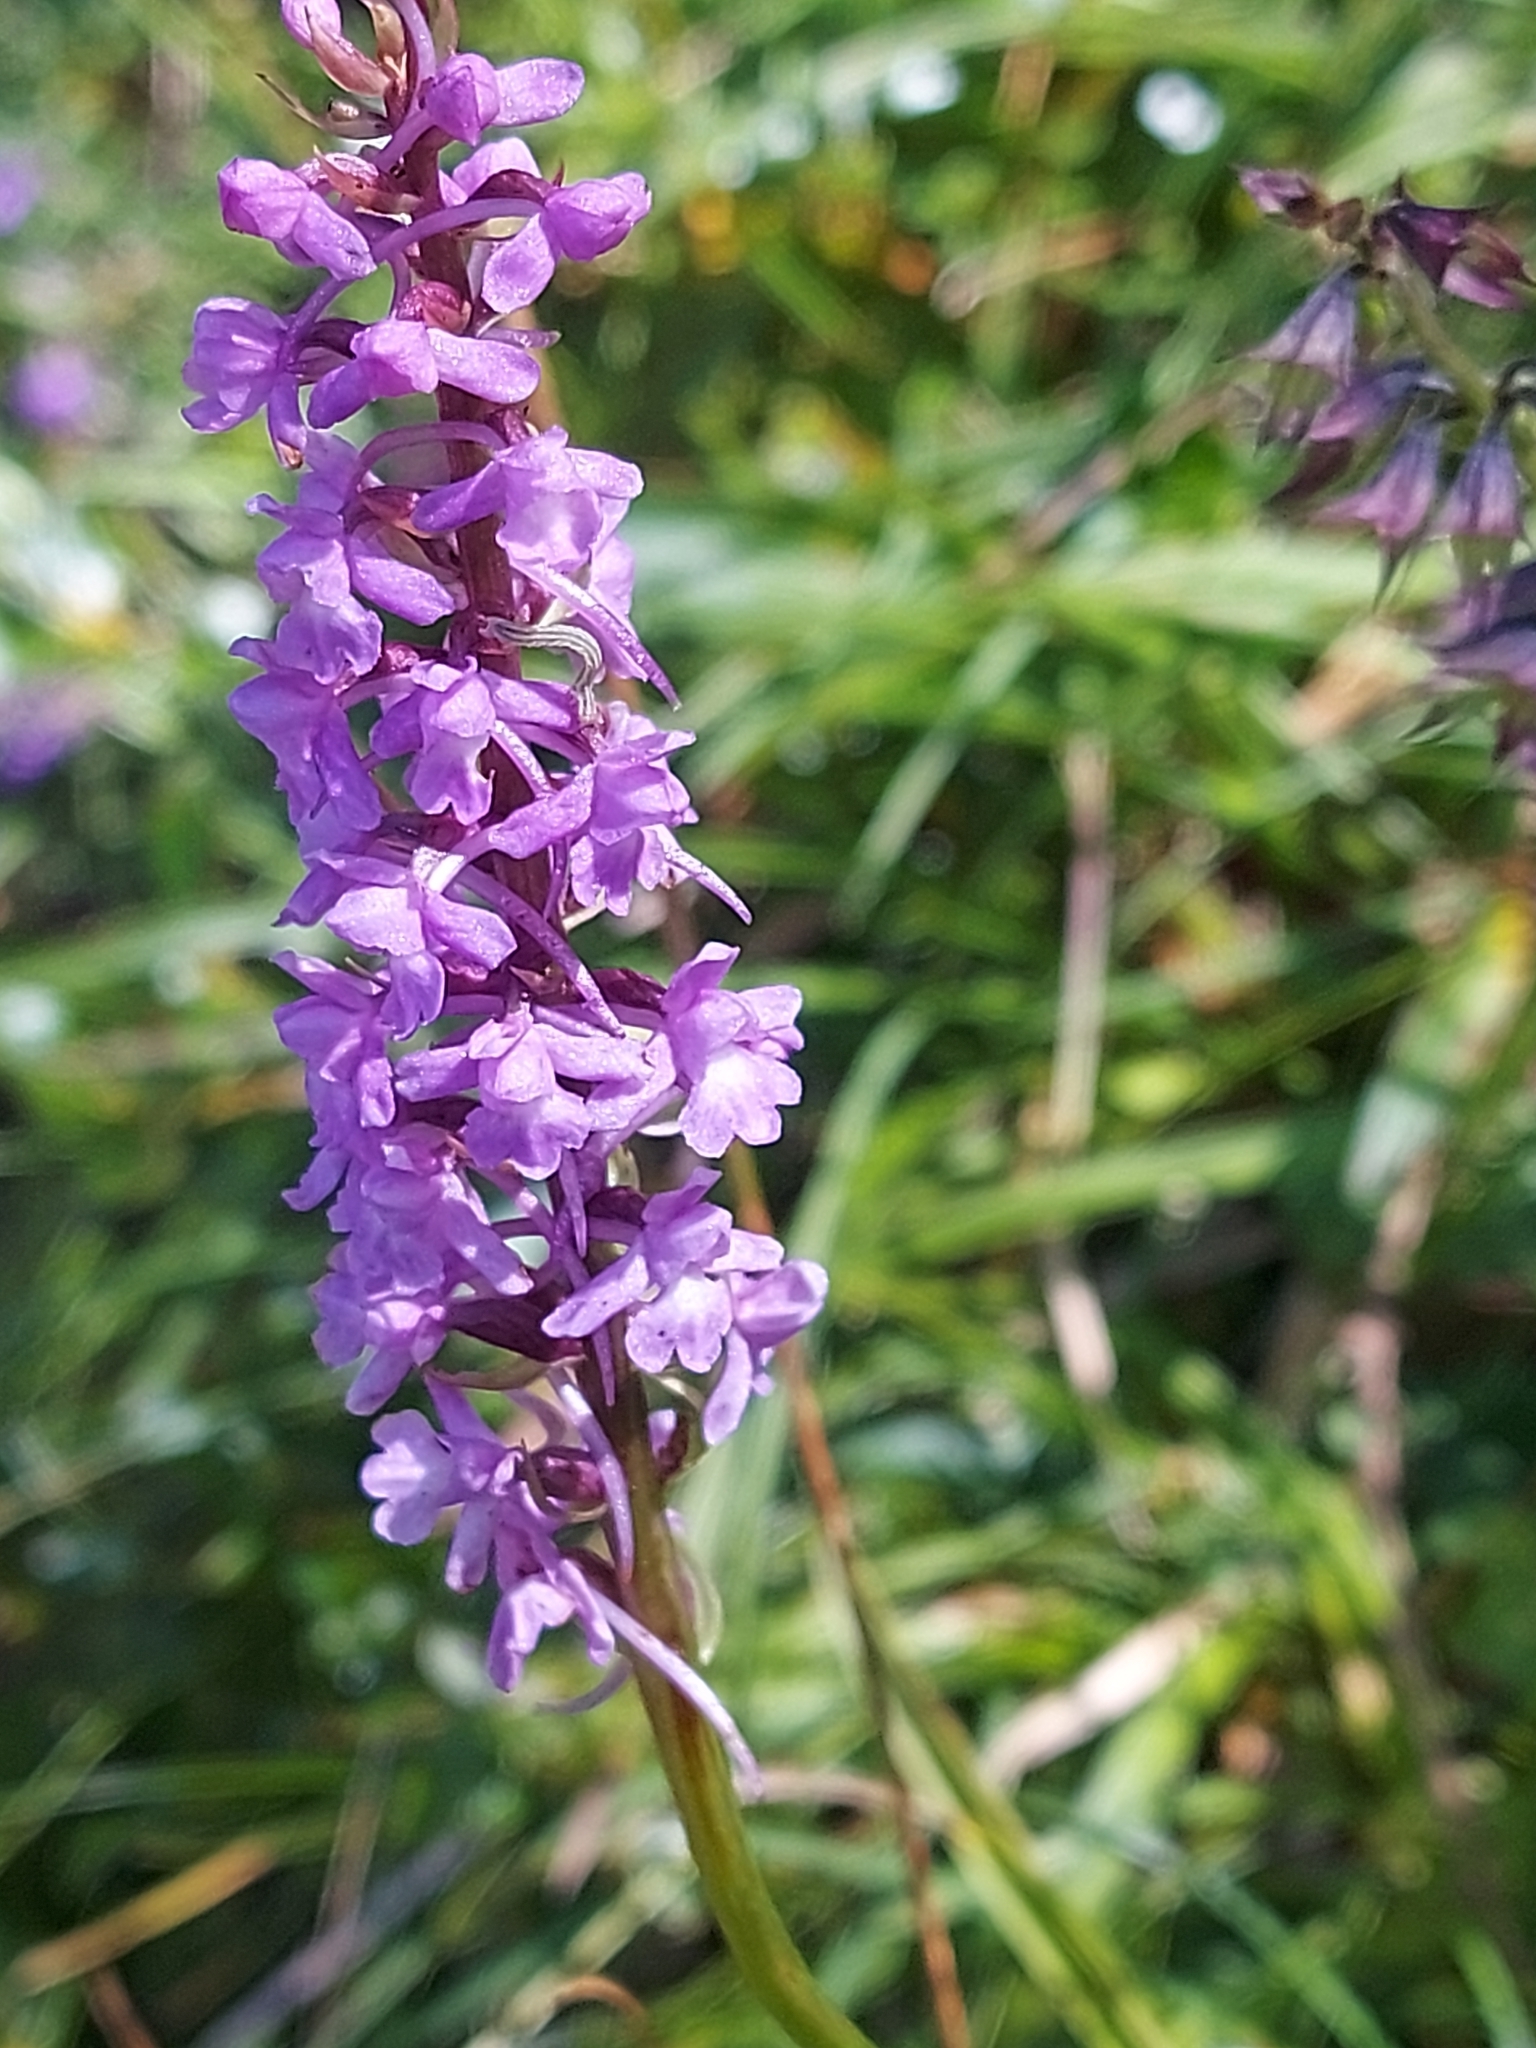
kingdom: Plantae
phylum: Tracheophyta
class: Liliopsida
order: Asparagales
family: Orchidaceae
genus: Gymnadenia
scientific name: Gymnadenia conopsea
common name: Fragrant orchid
